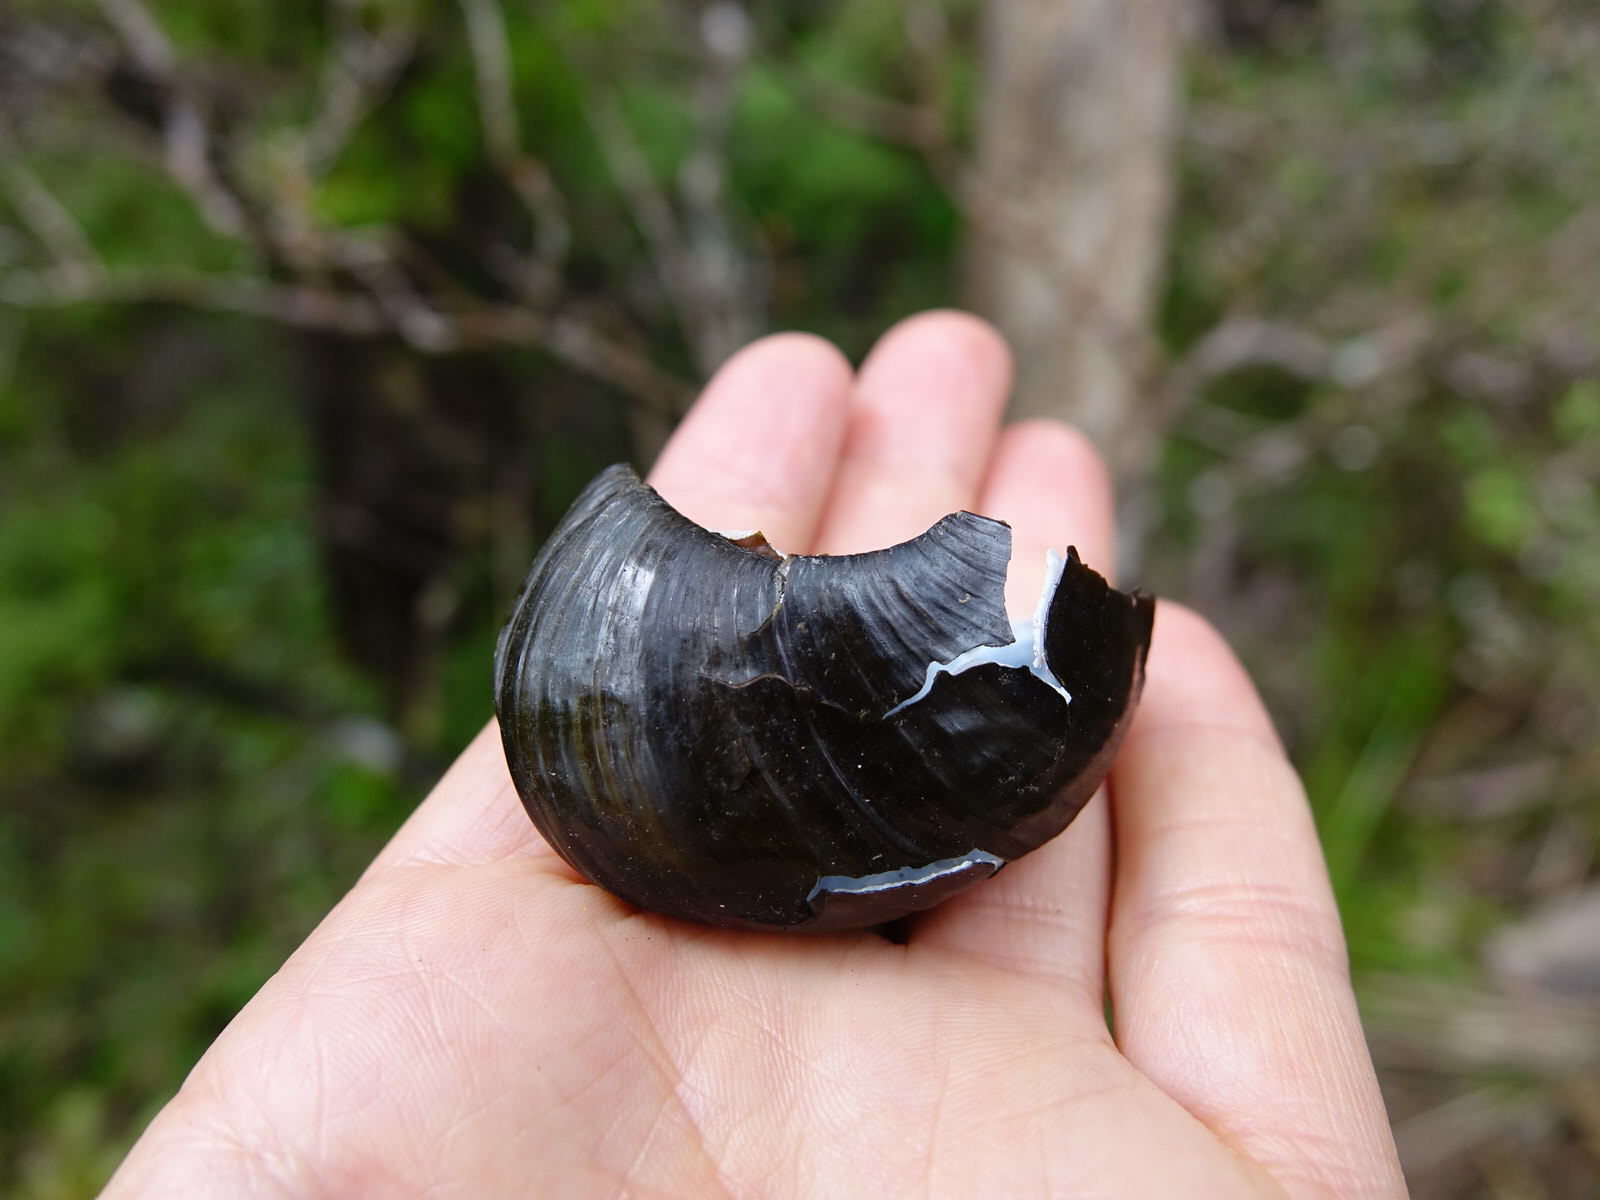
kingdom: Animalia
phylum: Mollusca
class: Gastropoda
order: Stylommatophora
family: Rhytididae
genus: Paryphanta
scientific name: Paryphanta busbyi
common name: Kauri snail
